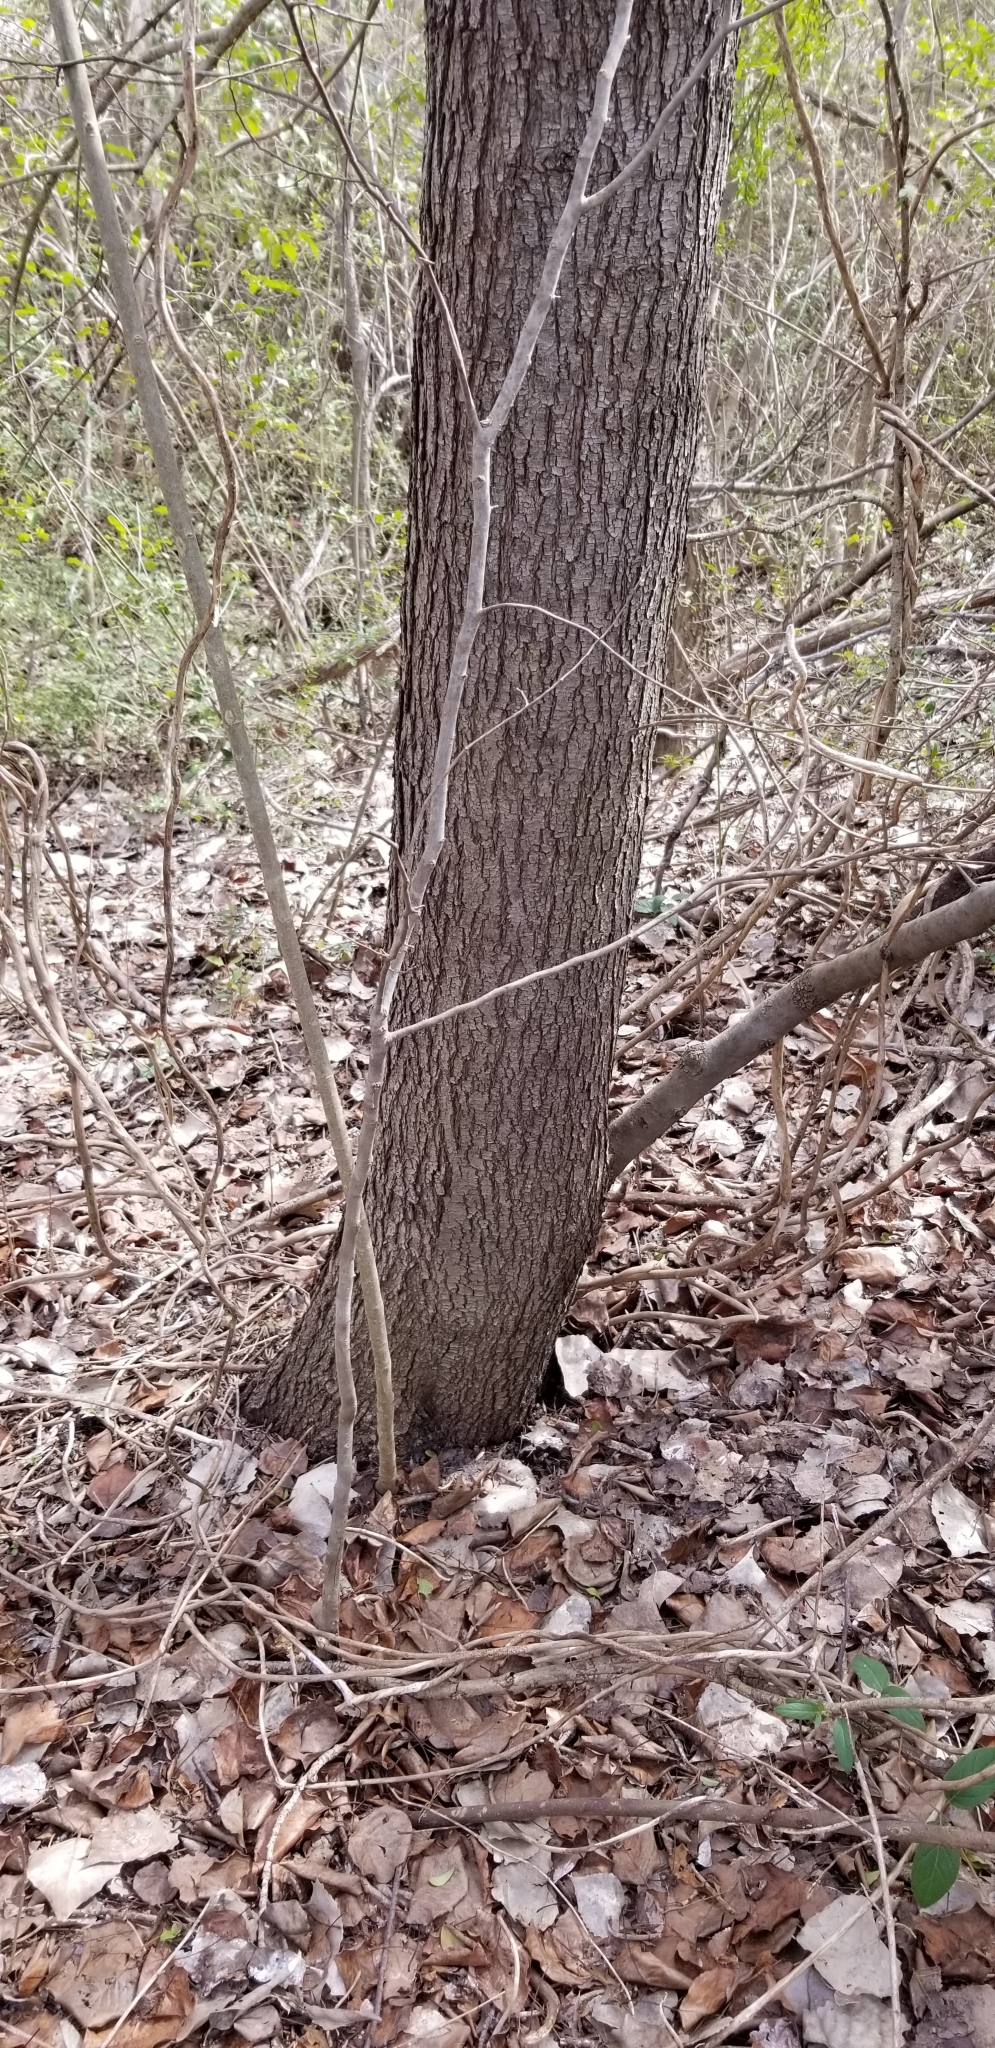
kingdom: Plantae
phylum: Tracheophyta
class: Magnoliopsida
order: Rosales
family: Rosaceae
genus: Pyrus
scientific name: Pyrus calleryana
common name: Callery pear
